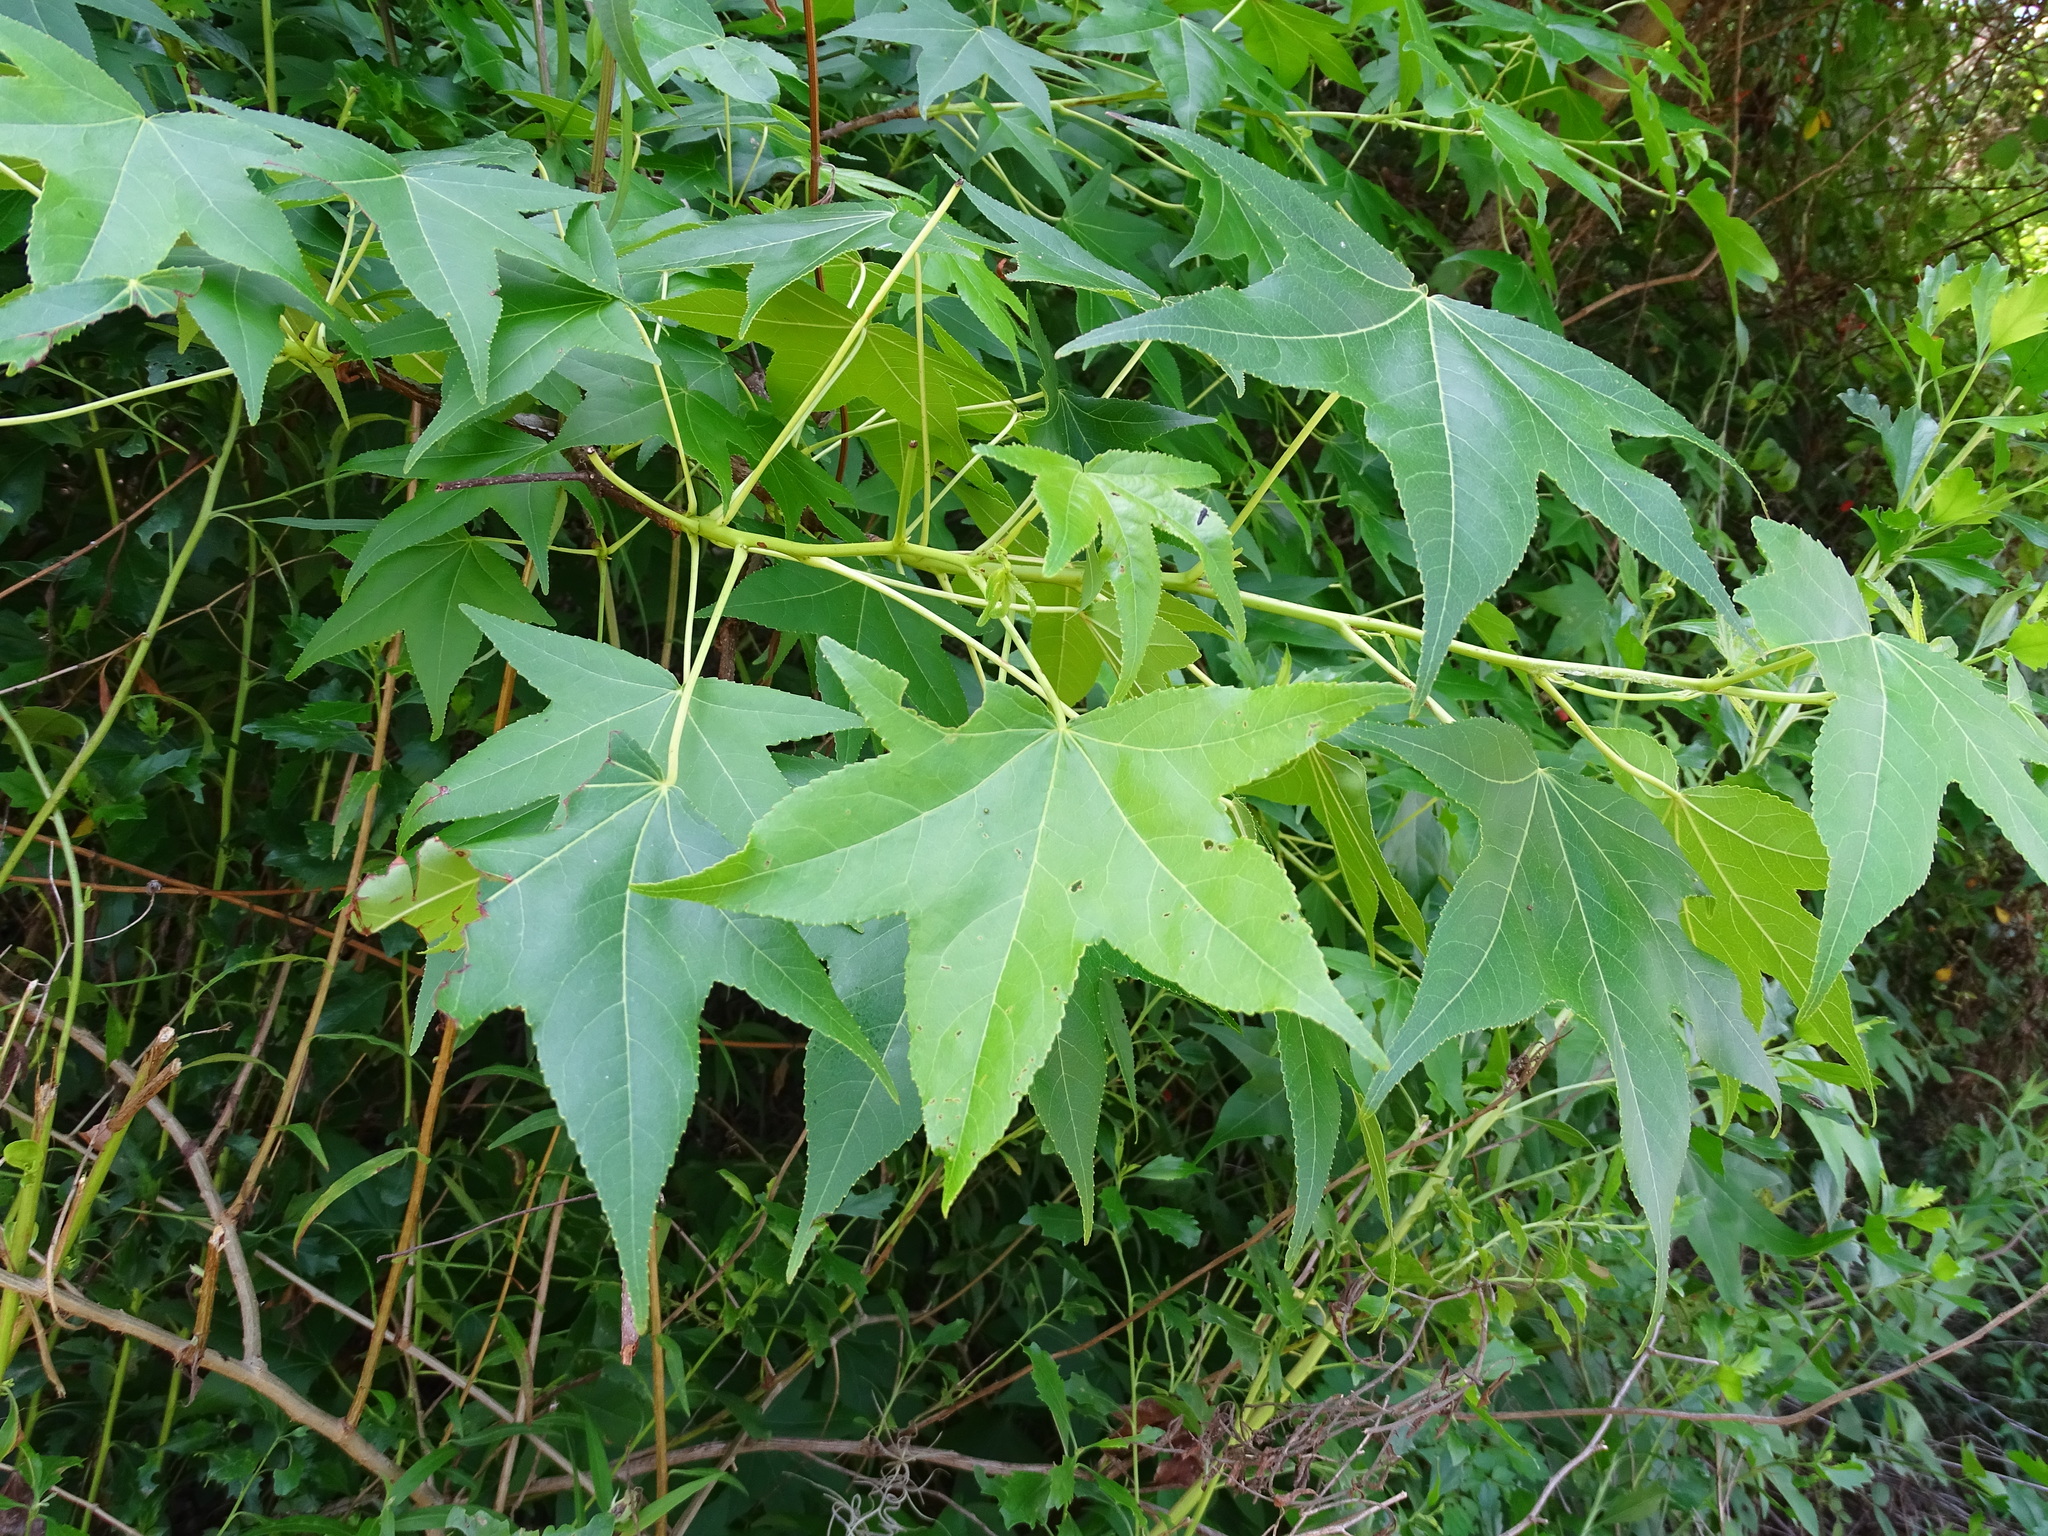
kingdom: Plantae
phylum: Tracheophyta
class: Magnoliopsida
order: Saxifragales
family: Altingiaceae
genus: Liquidambar
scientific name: Liquidambar styraciflua
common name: Sweet gum
